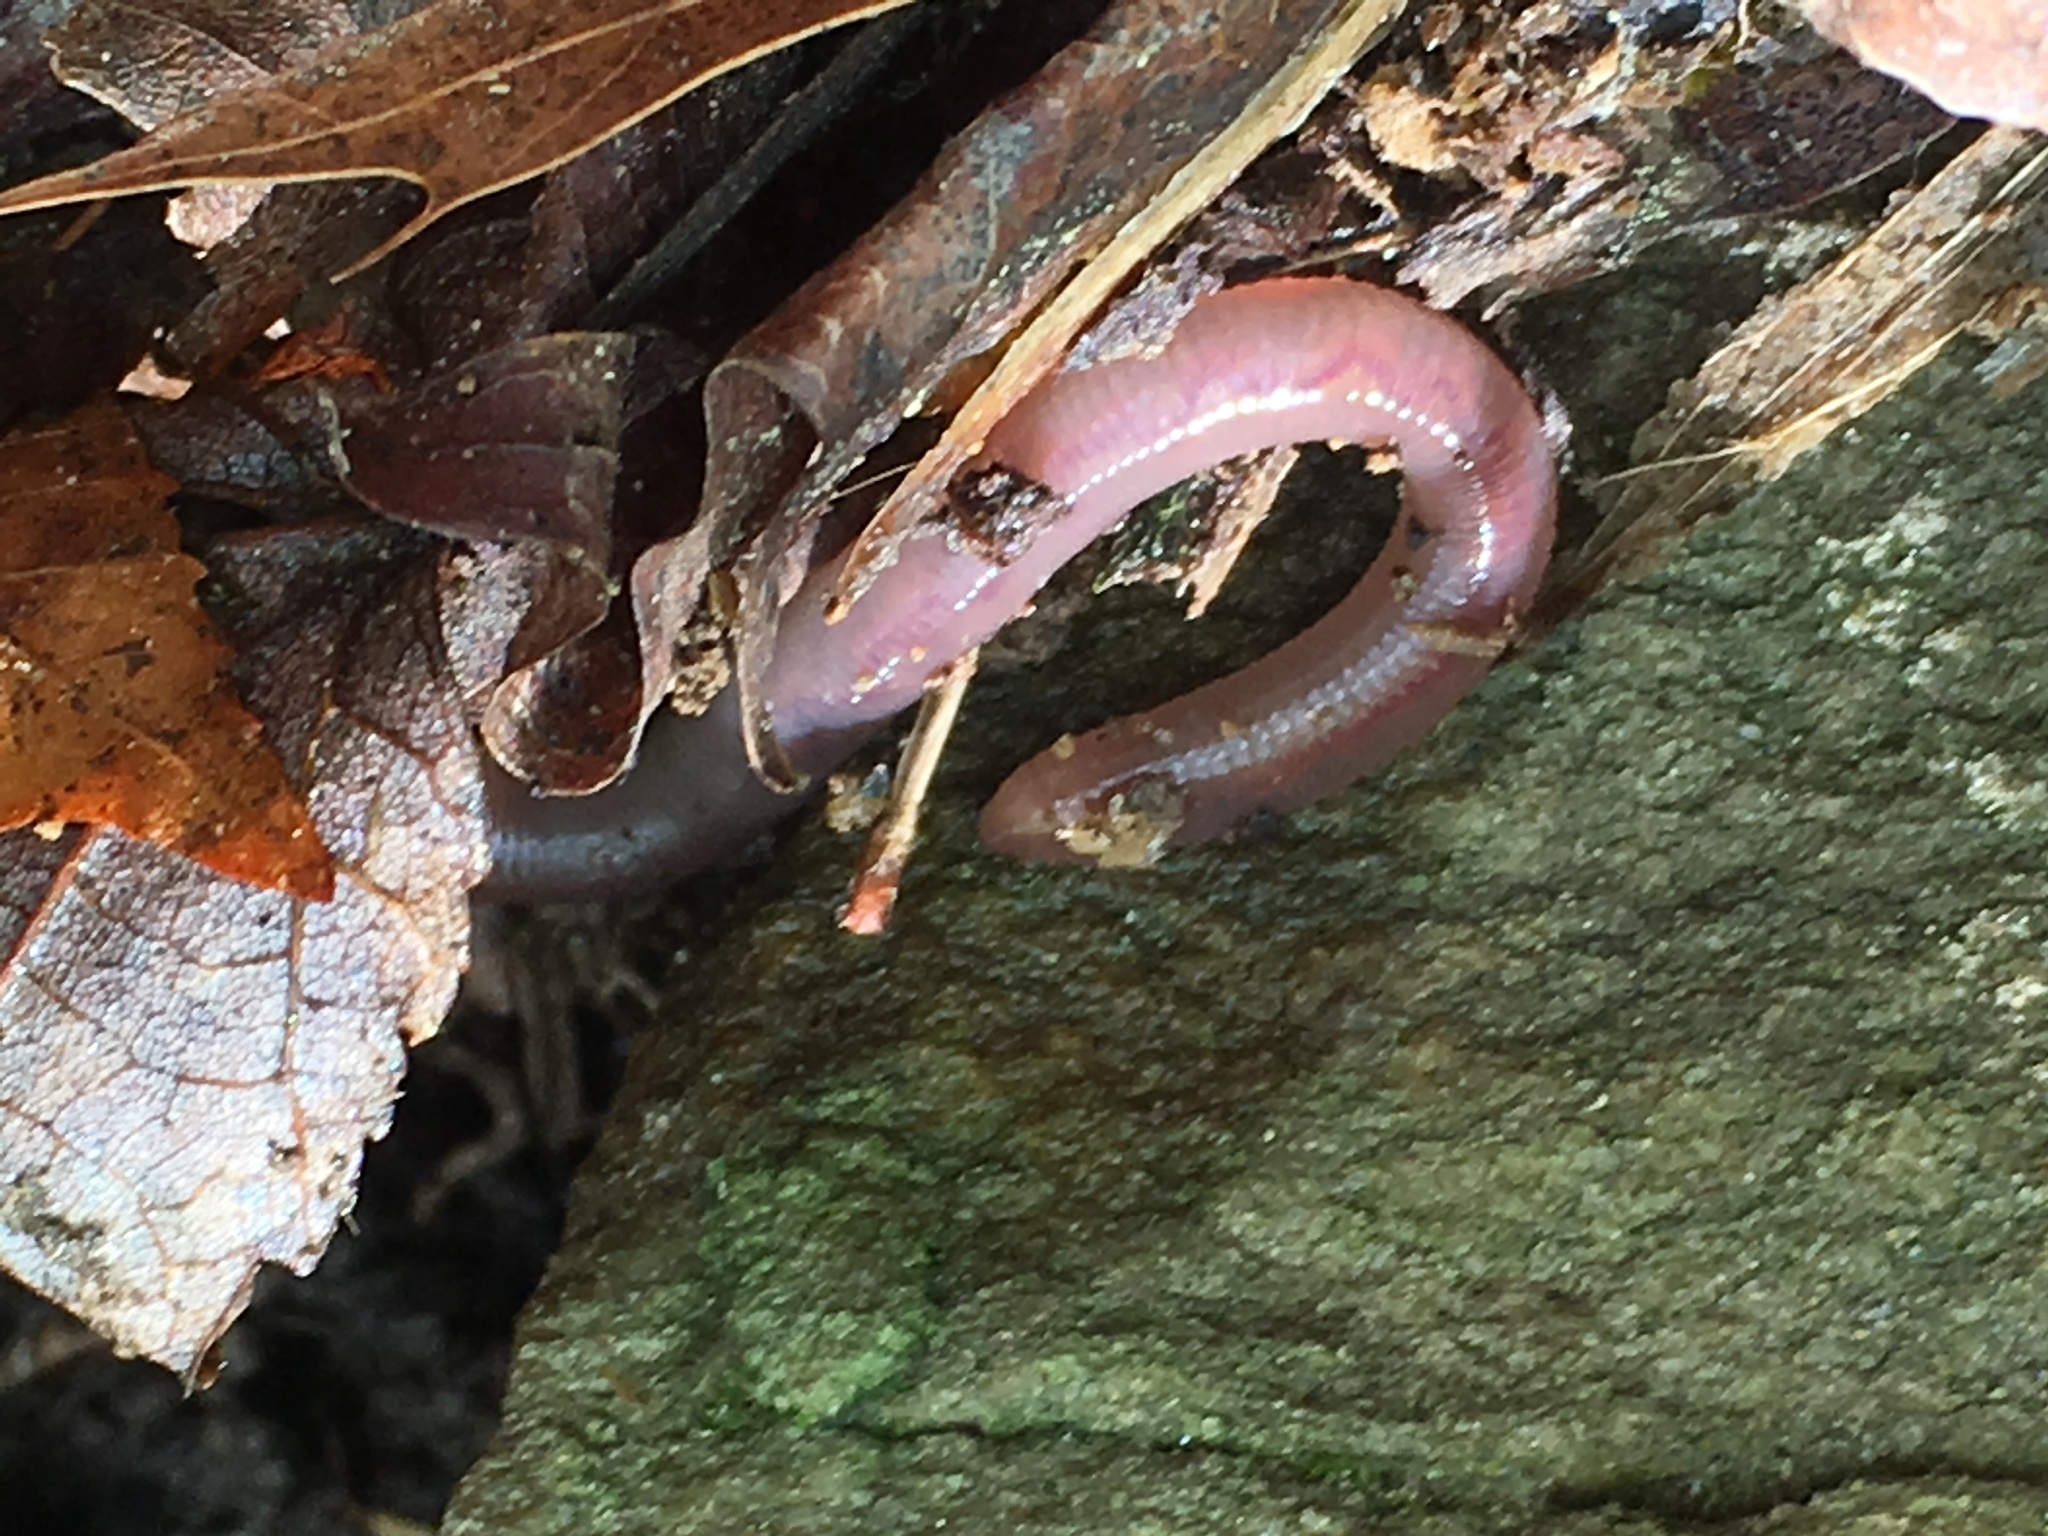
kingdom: Animalia
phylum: Annelida
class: Clitellata
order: Crassiclitellata
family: Lumbricidae
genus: Lumbricus
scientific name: Lumbricus terrestris
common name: Common earthworm
